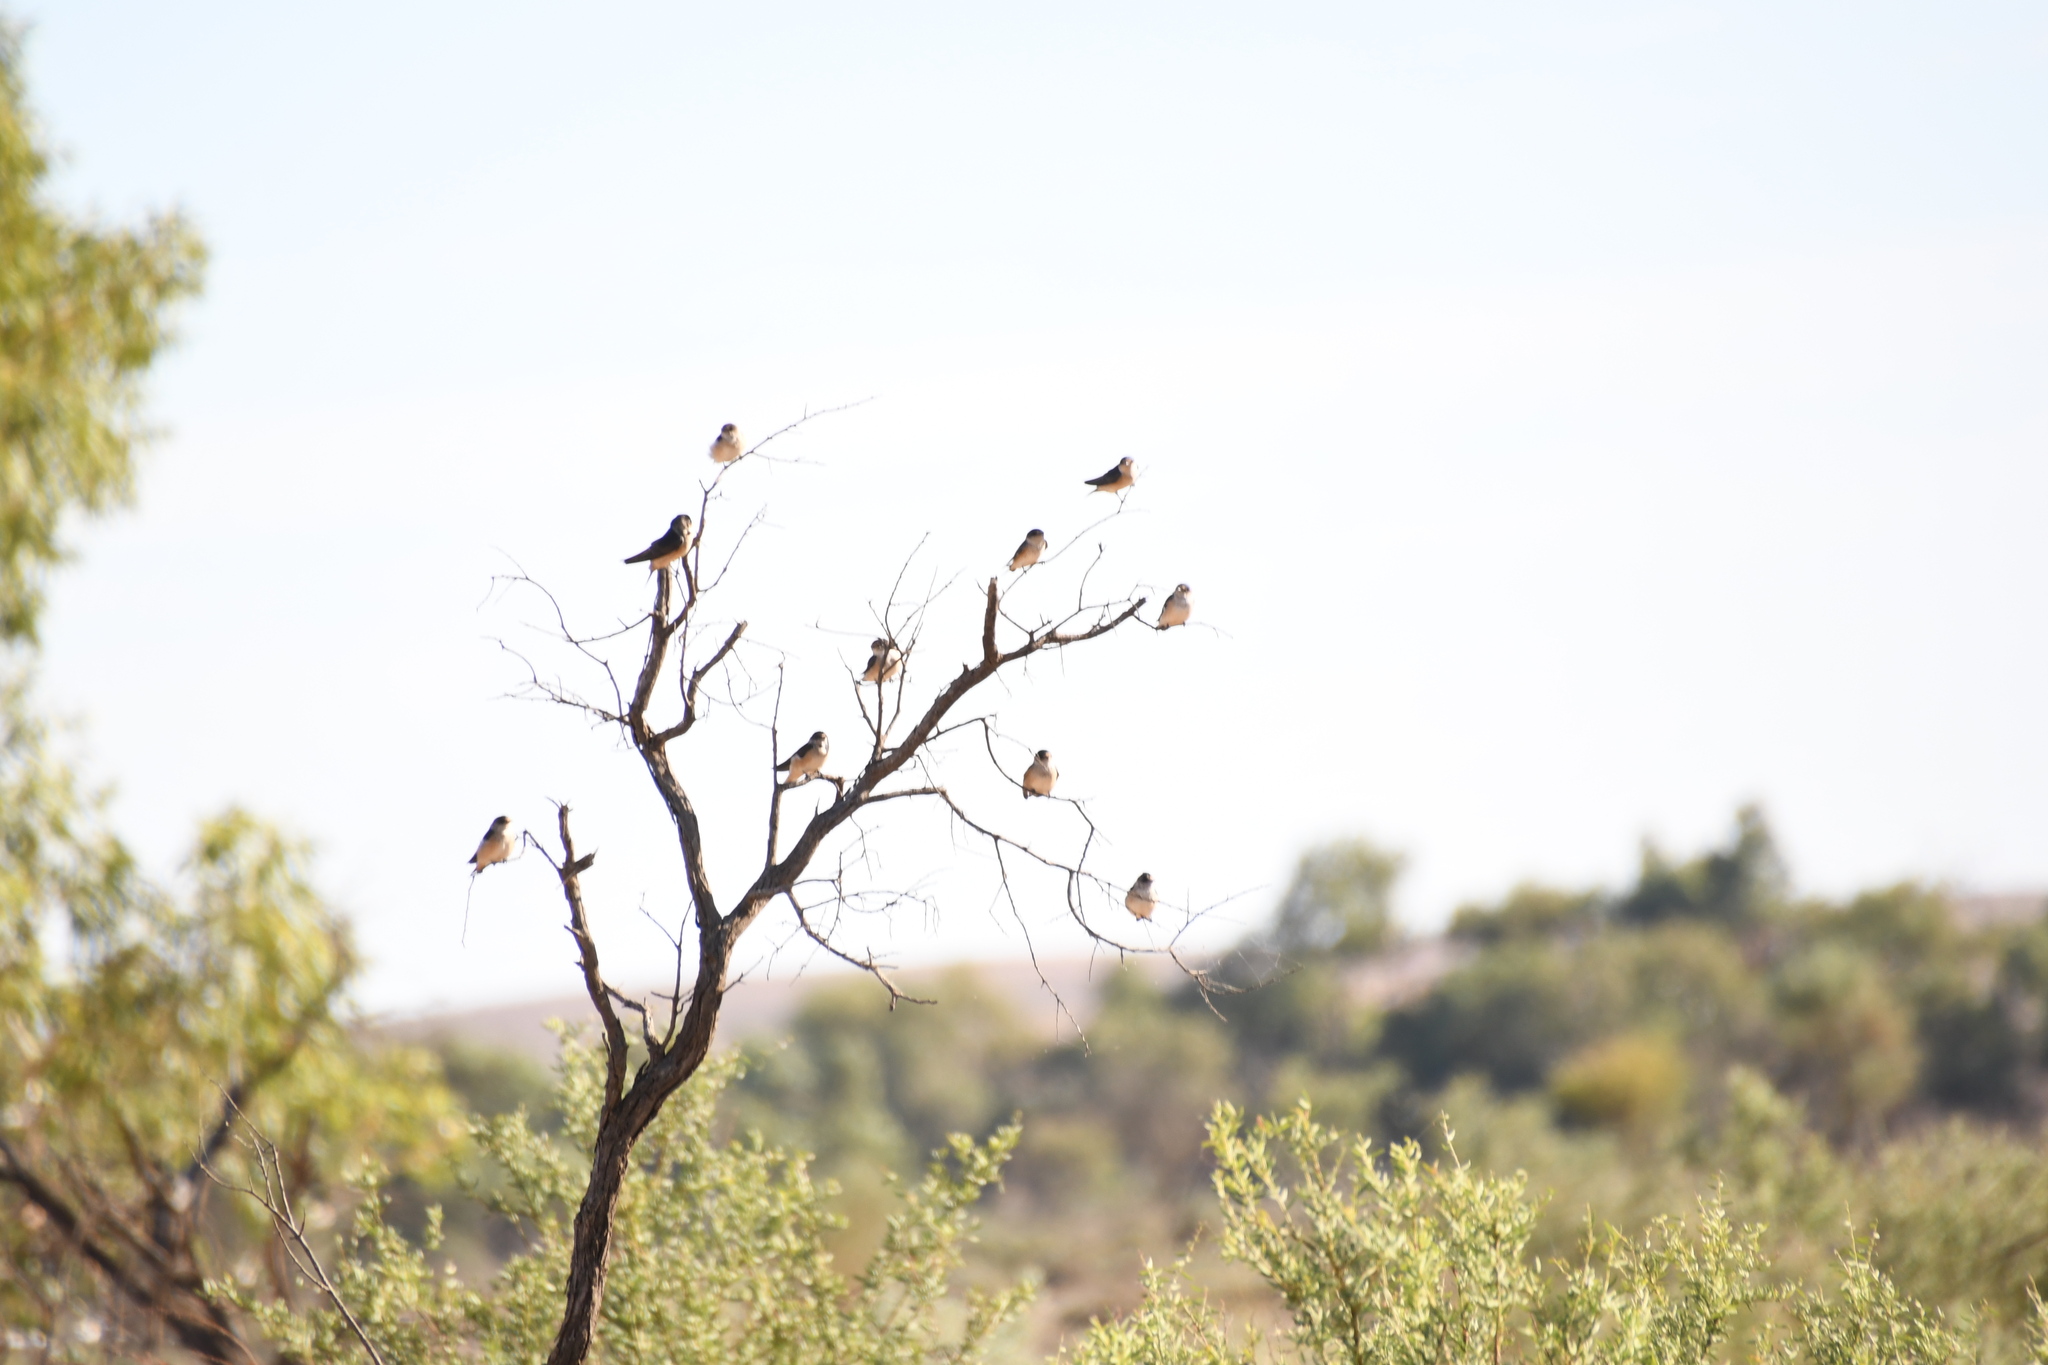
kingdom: Animalia
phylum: Chordata
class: Aves
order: Passeriformes
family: Hirundinidae
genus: Petrochelidon
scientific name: Petrochelidon nigricans
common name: Tree martin
